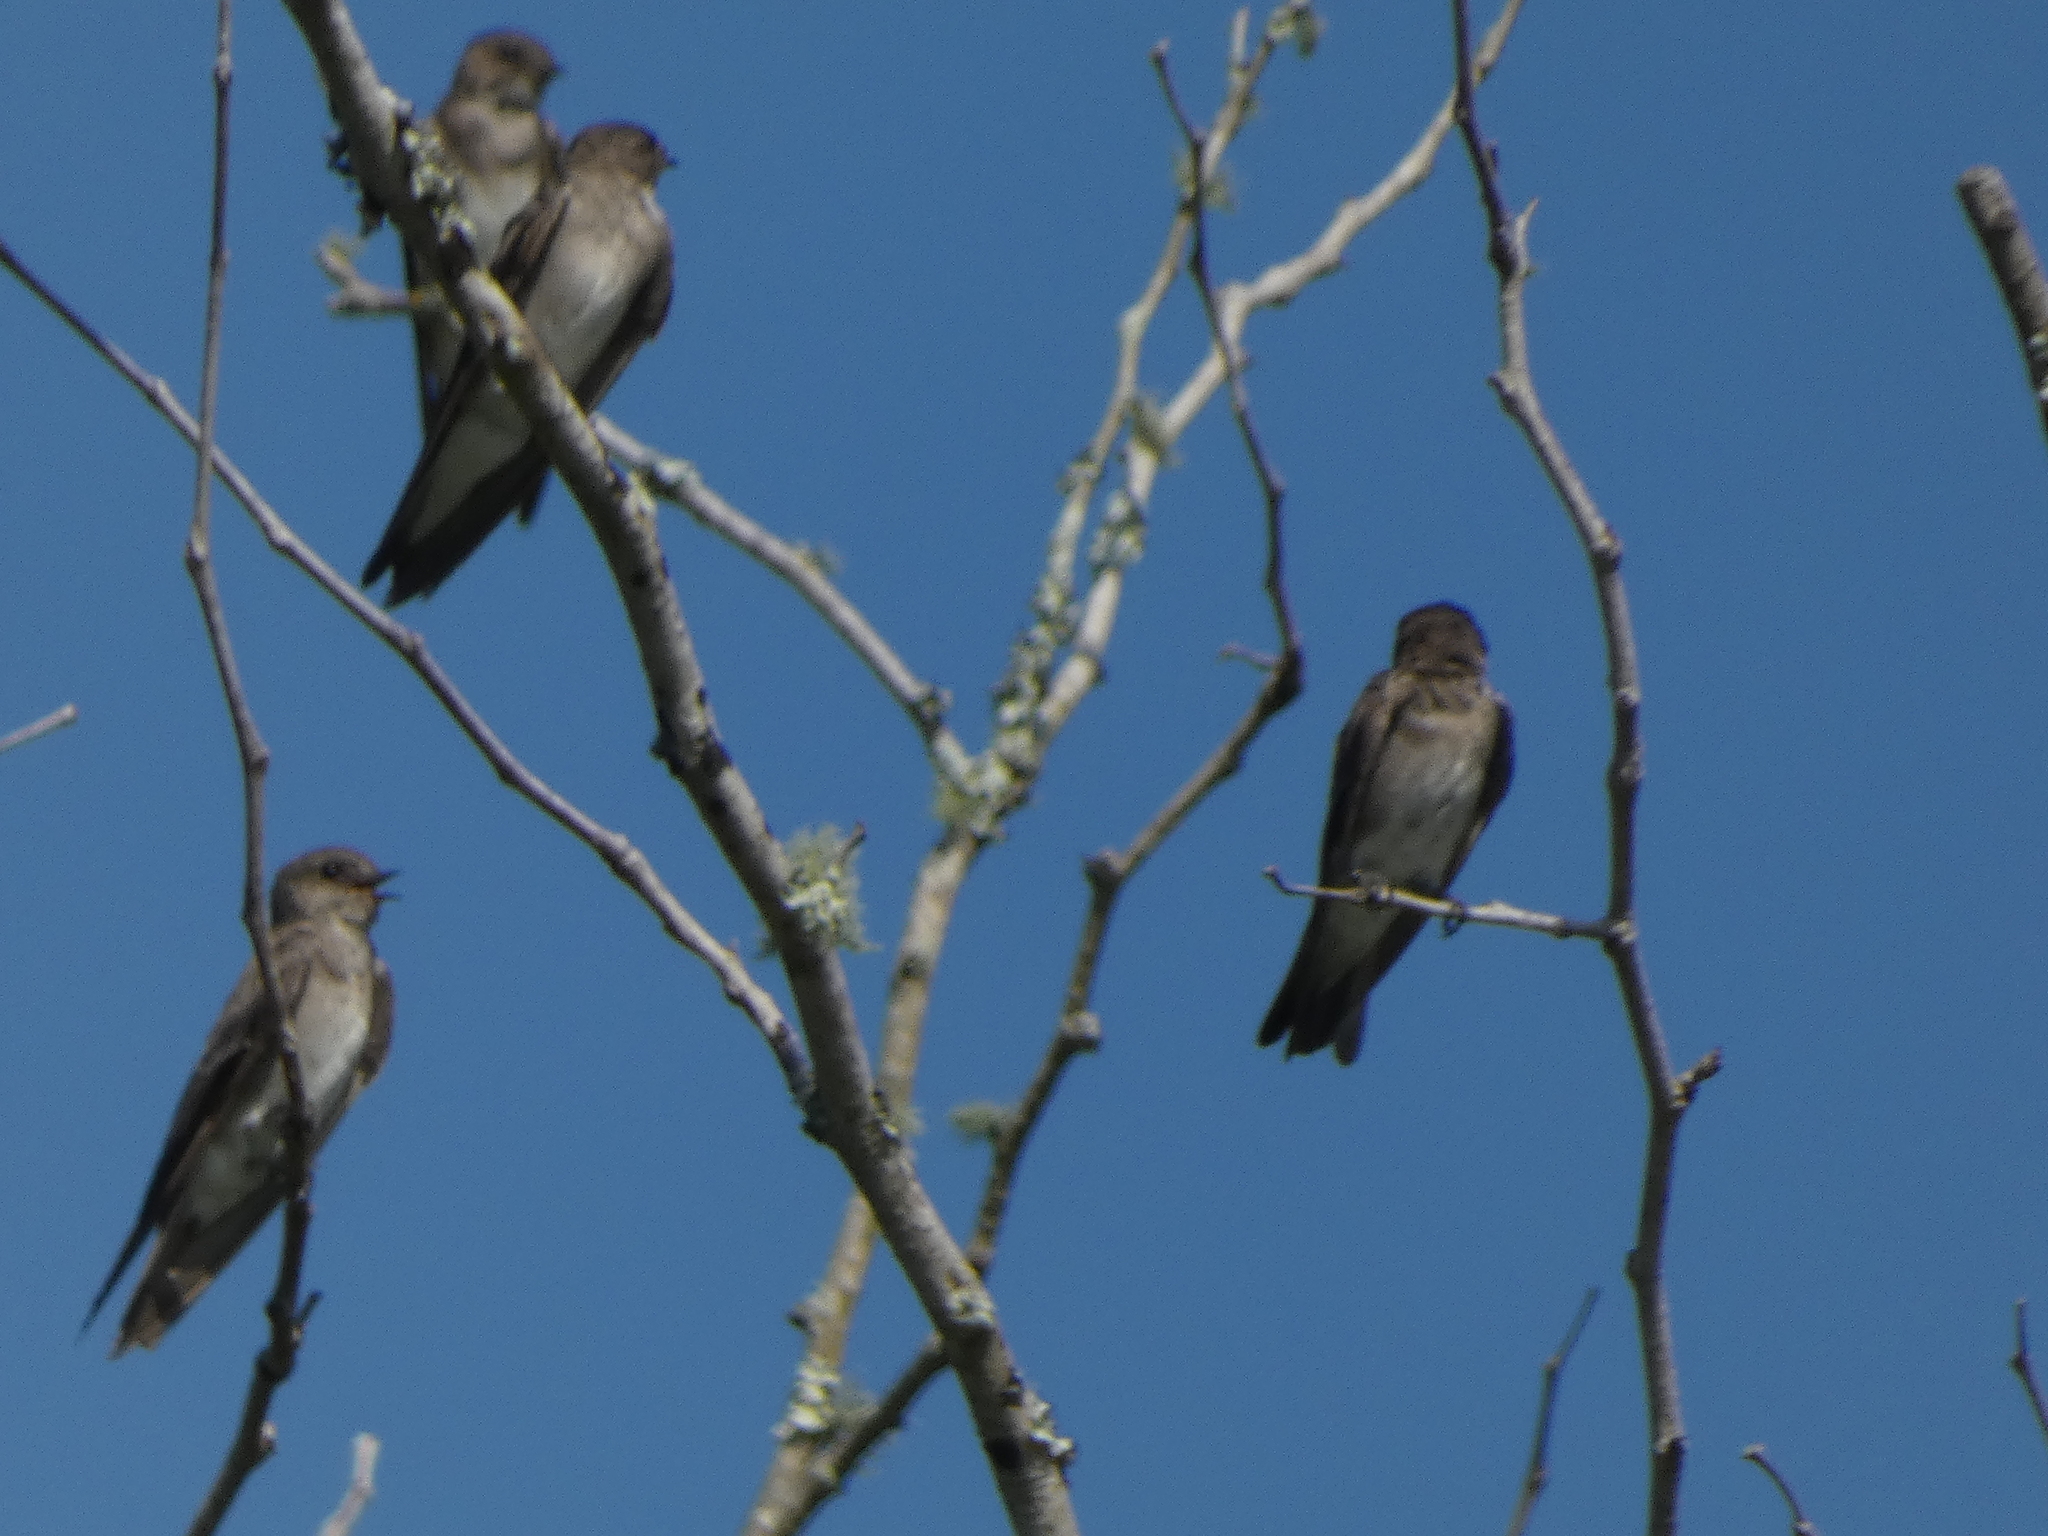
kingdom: Animalia
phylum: Chordata
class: Aves
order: Passeriformes
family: Hirundinidae
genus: Stelgidopteryx
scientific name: Stelgidopteryx serripennis
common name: Northern rough-winged swallow
